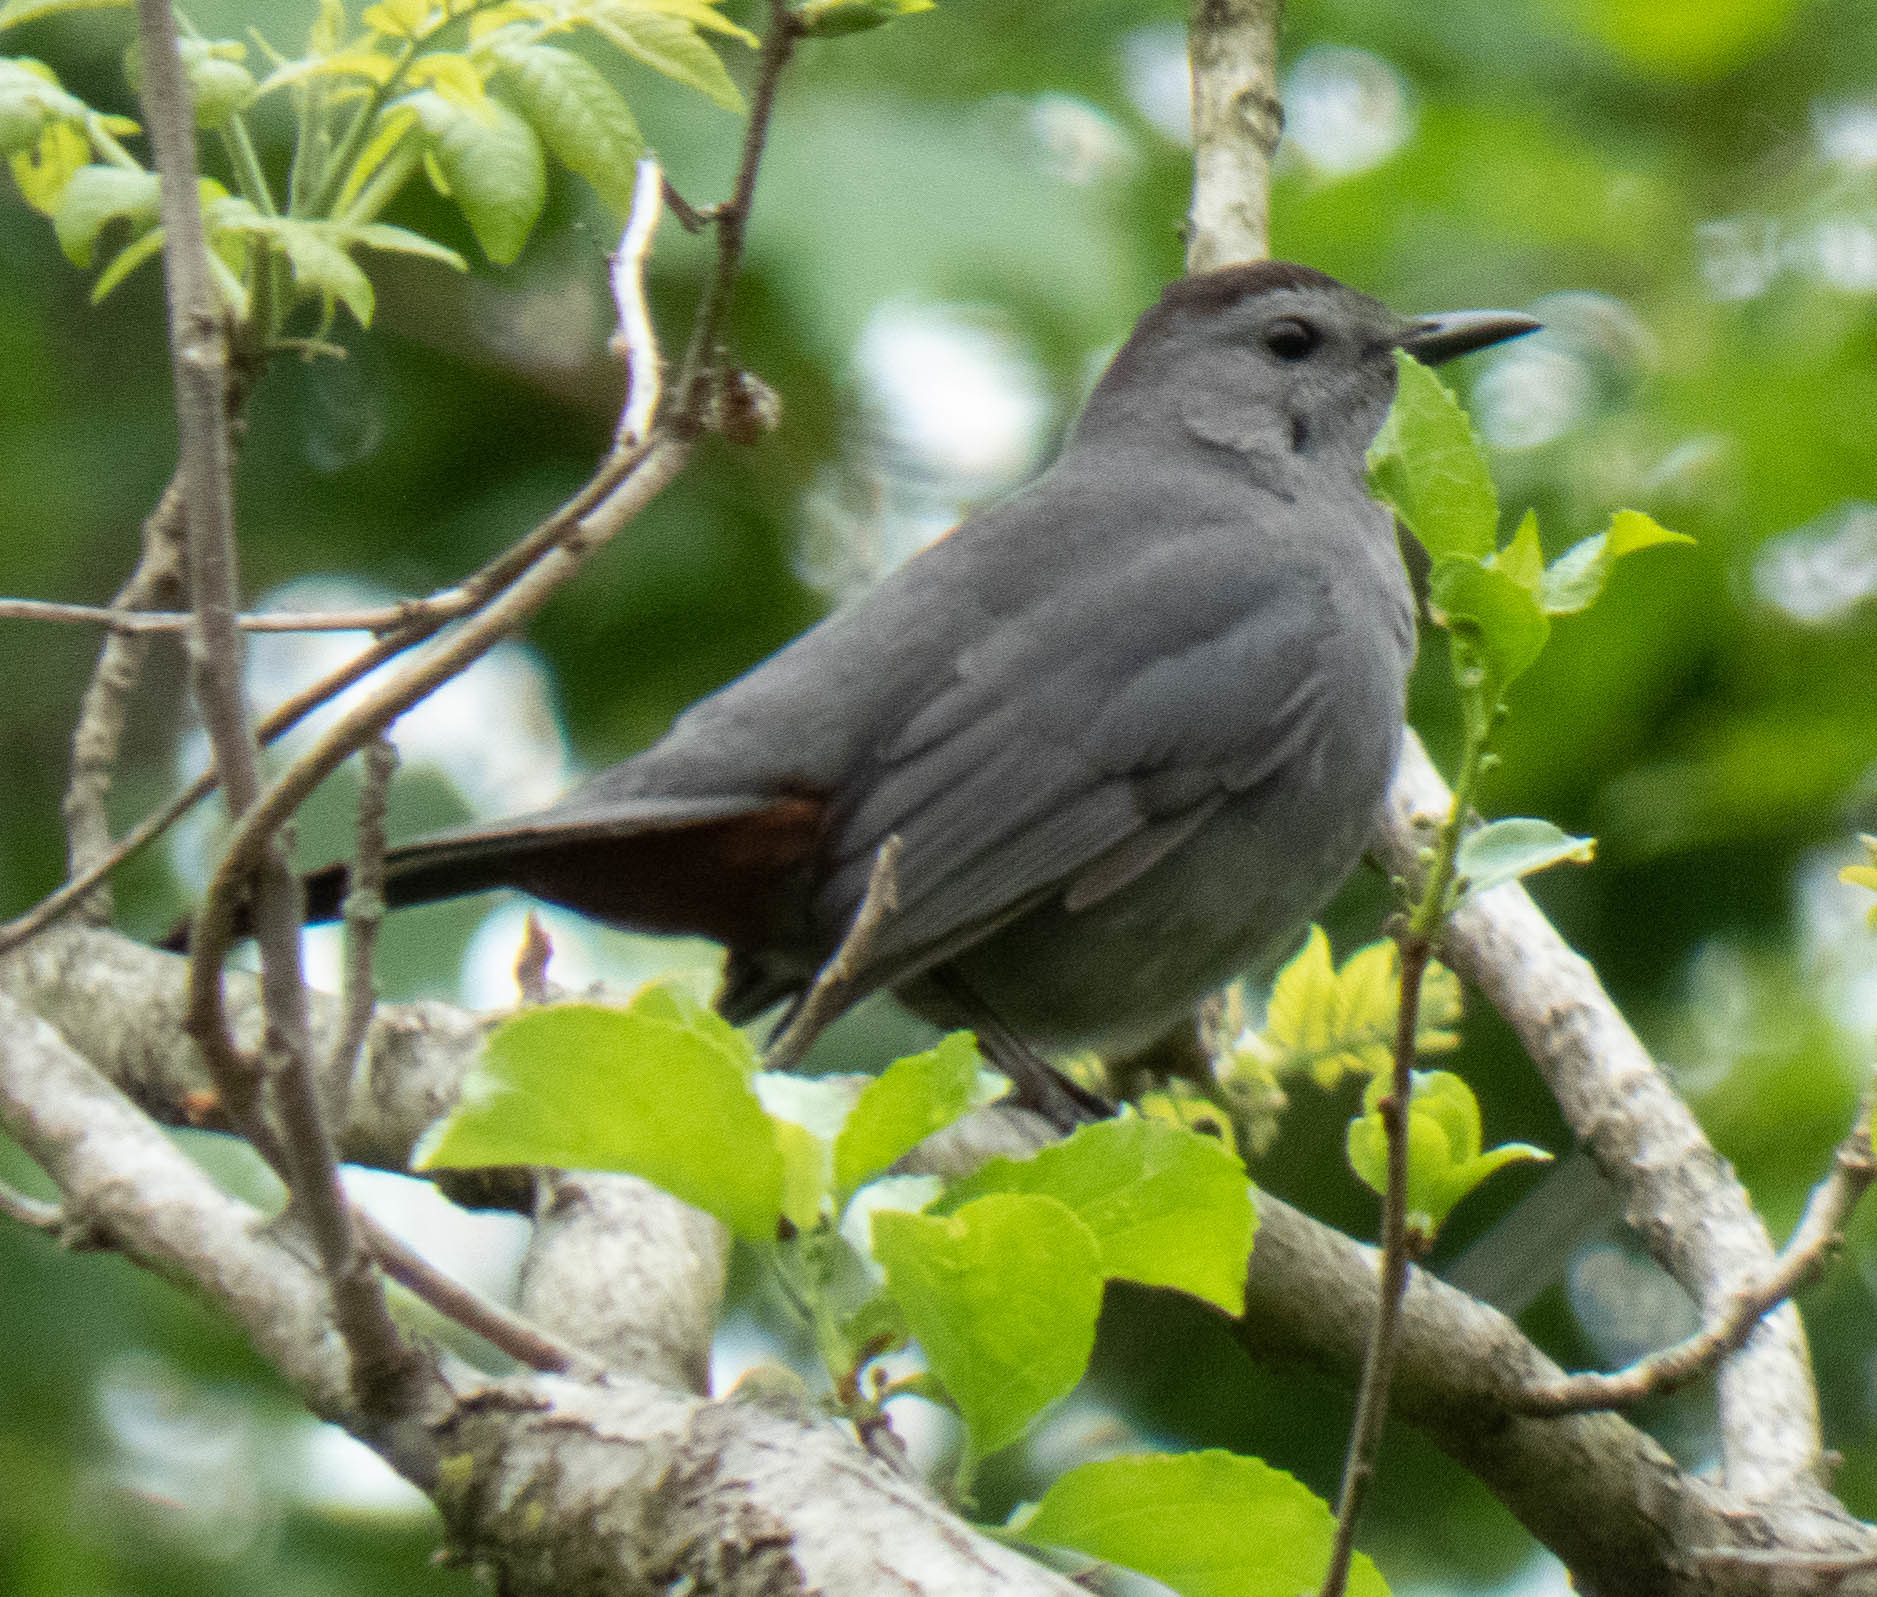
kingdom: Animalia
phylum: Chordata
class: Aves
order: Passeriformes
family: Mimidae
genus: Dumetella
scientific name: Dumetella carolinensis
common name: Gray catbird
